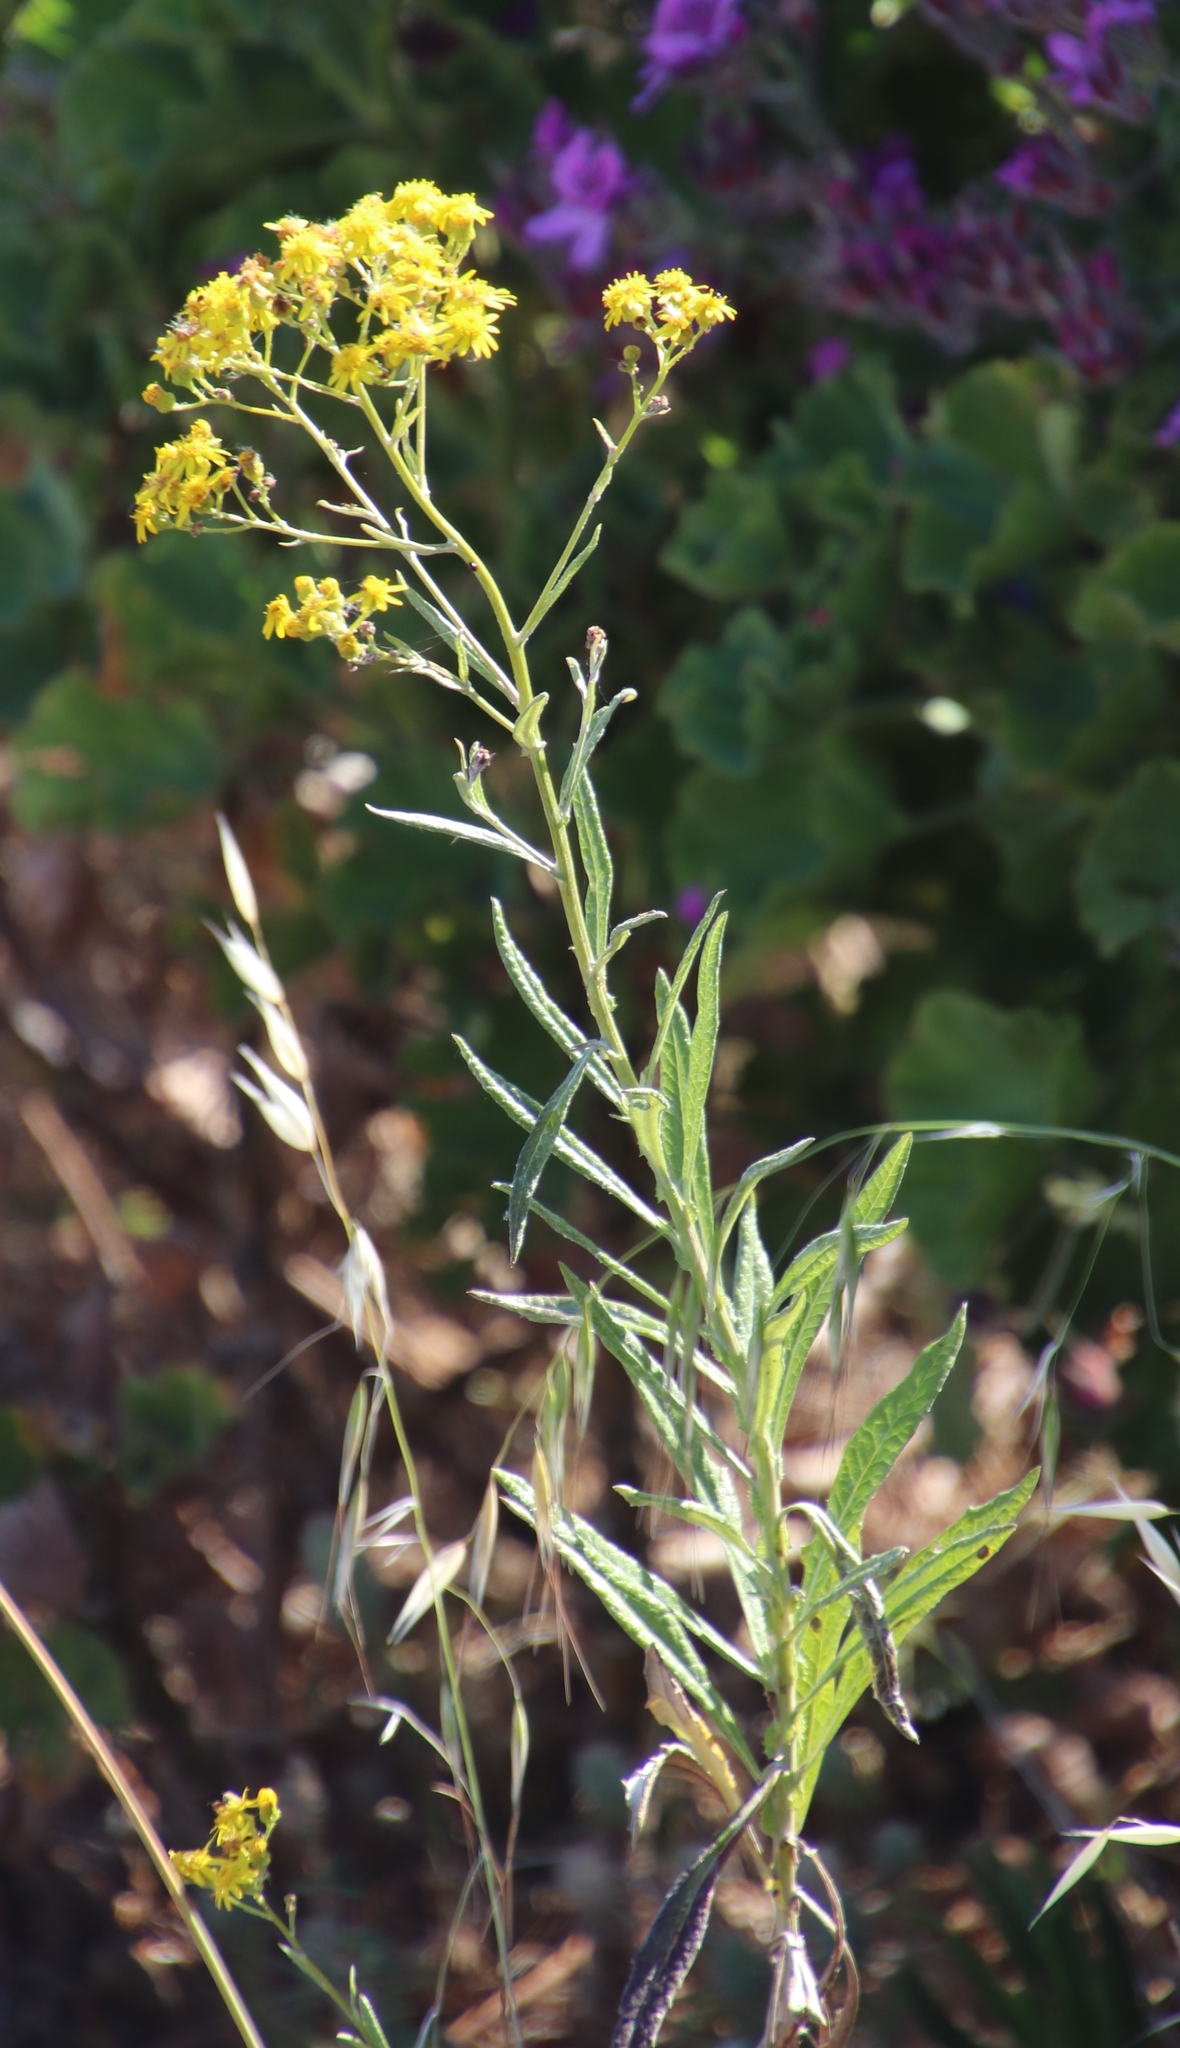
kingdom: Plantae
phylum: Tracheophyta
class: Magnoliopsida
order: Asterales
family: Asteraceae
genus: Senecio
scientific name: Senecio pterophorus
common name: Shoddy ragwort
